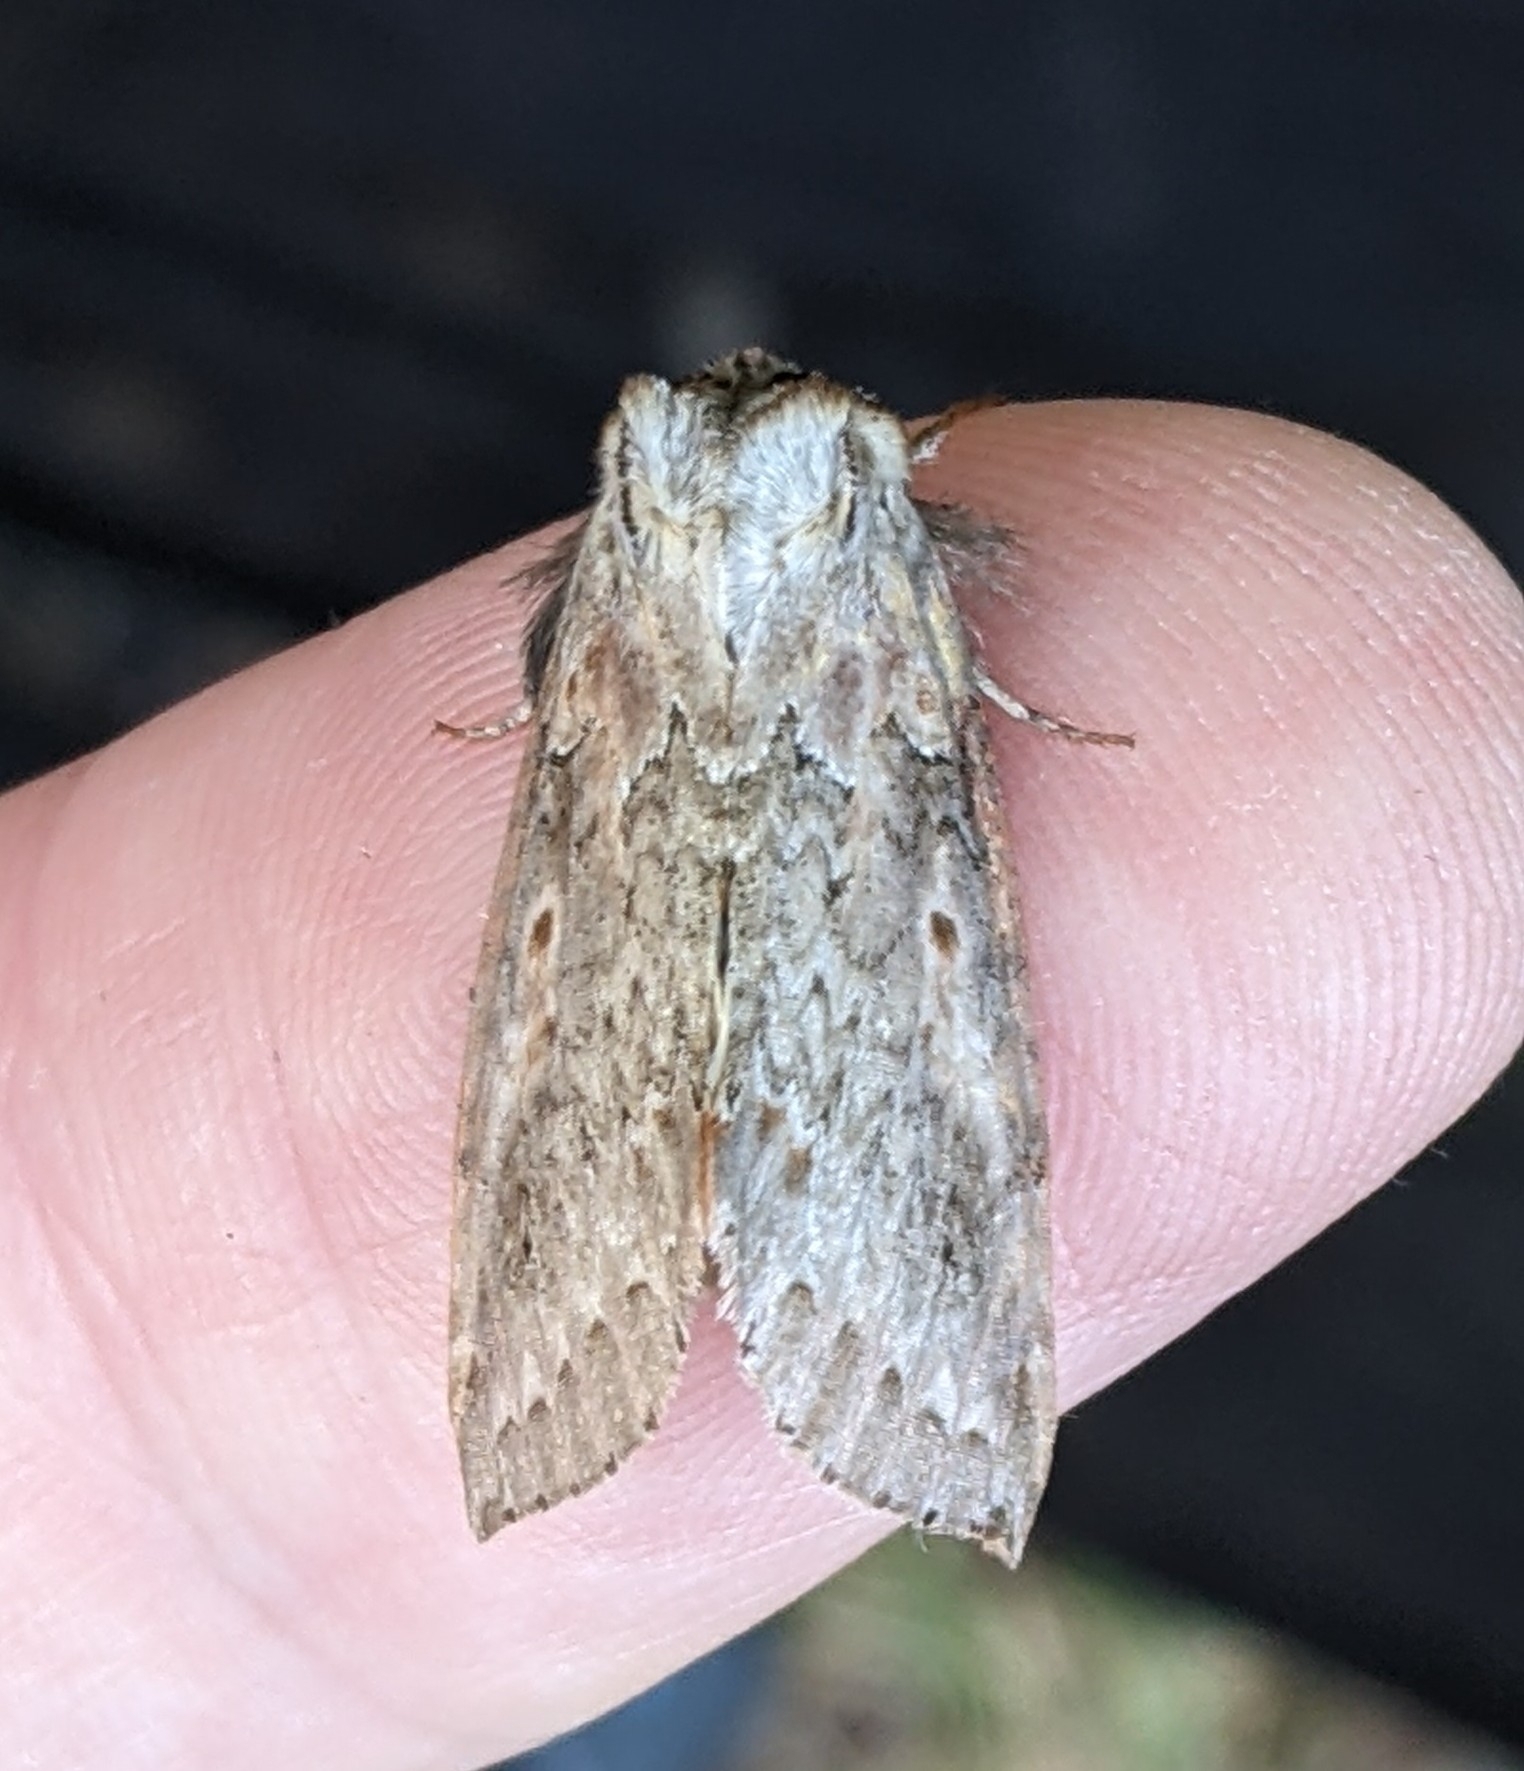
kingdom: Animalia
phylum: Arthropoda
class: Insecta
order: Lepidoptera
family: Drepanidae
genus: Pseudothyatira
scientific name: Pseudothyatira cymatophoroides
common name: Tufted thyatirid moth
